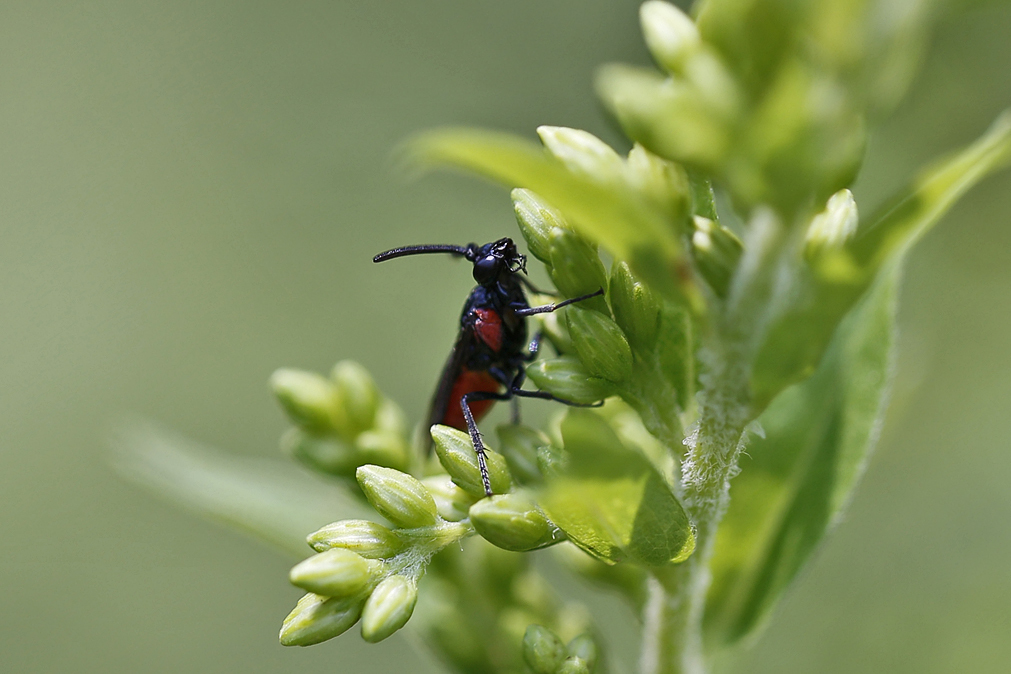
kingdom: Animalia
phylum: Arthropoda
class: Insecta
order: Hymenoptera
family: Argidae
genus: Arge
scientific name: Arge humeralis
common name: Poison ivy sawfly
